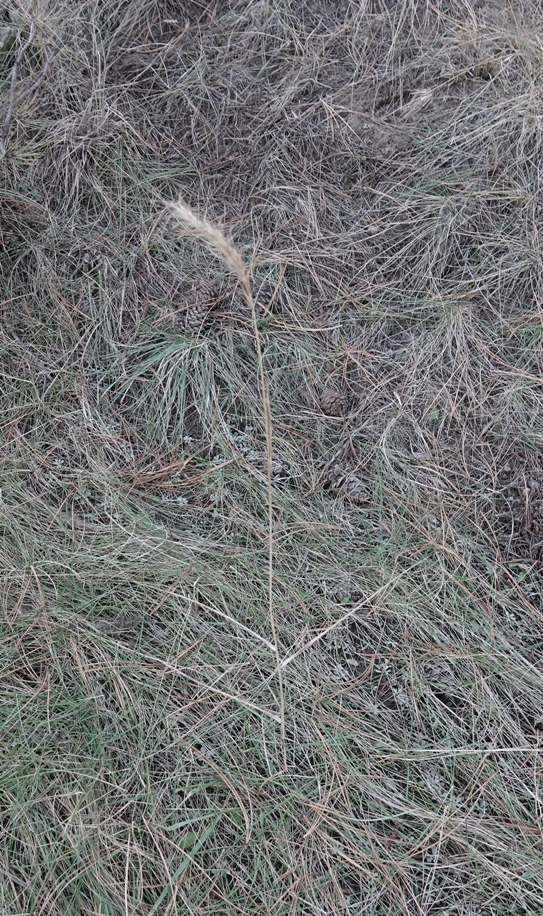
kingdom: Plantae
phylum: Tracheophyta
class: Liliopsida
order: Poales
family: Poaceae
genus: Elymus
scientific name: Elymus canadensis
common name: Canada wild rye
